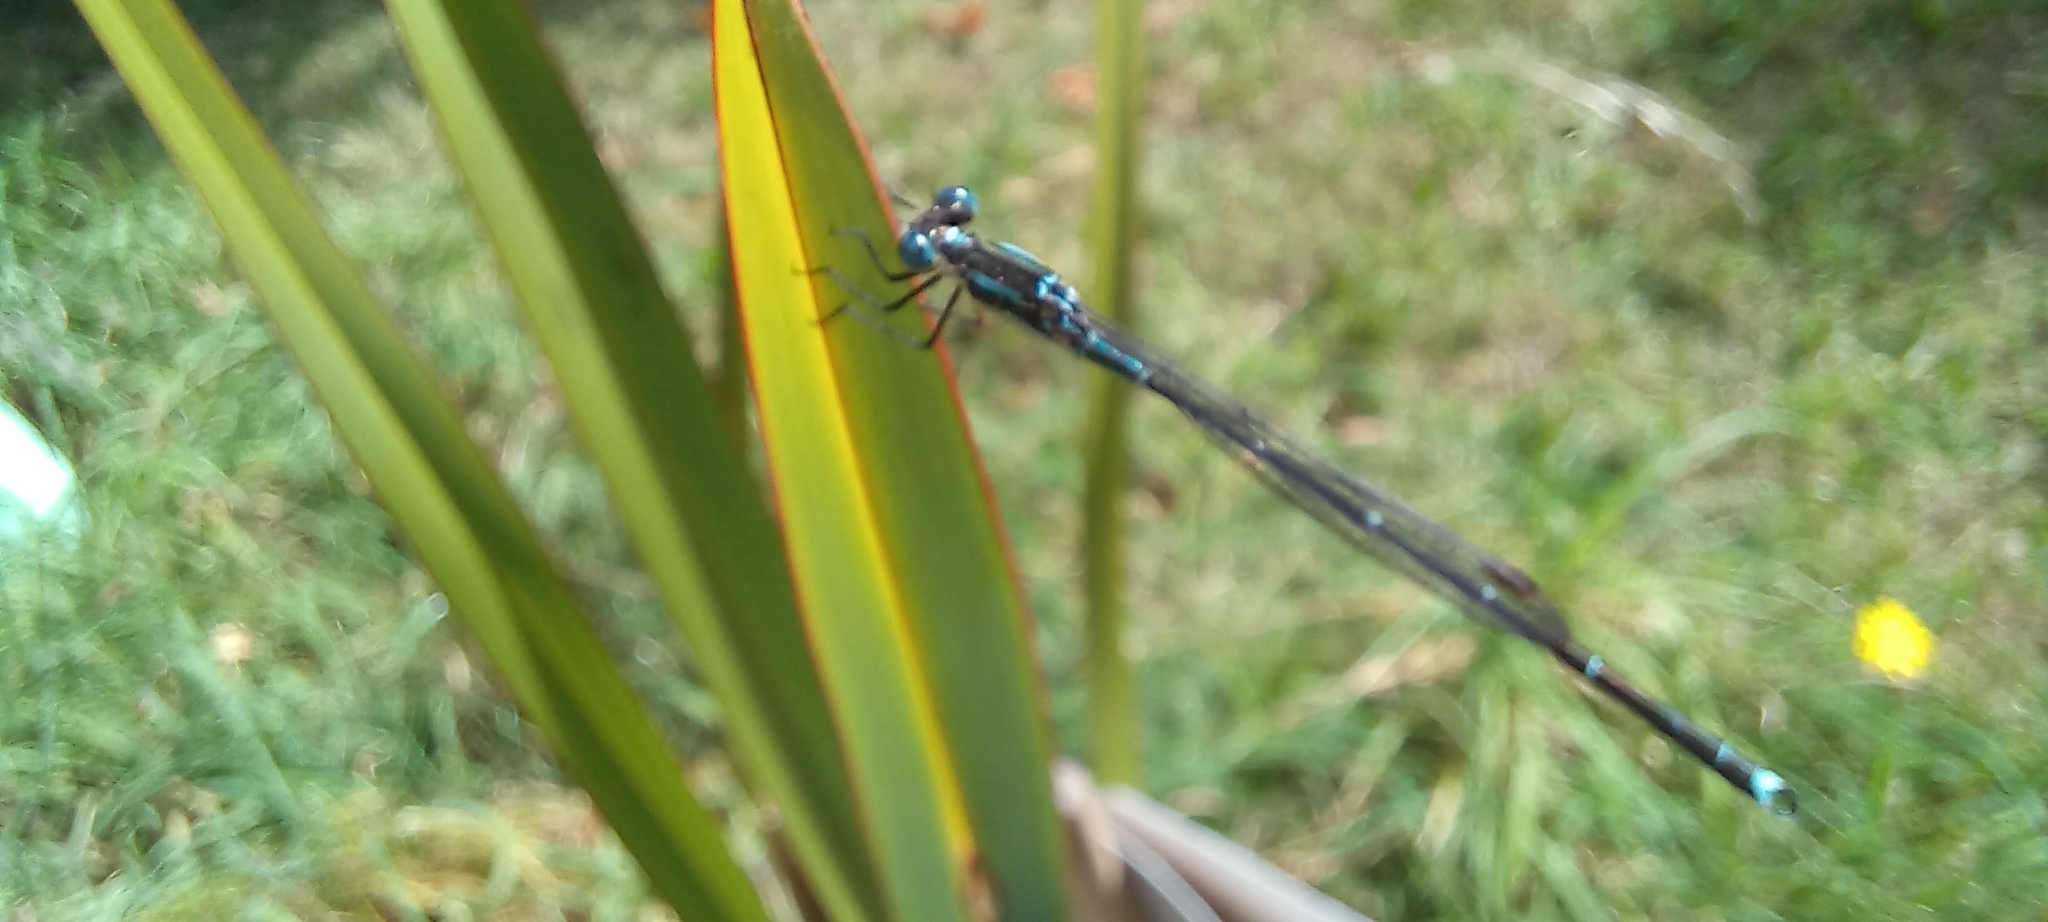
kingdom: Animalia
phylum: Arthropoda
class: Insecta
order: Odonata
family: Lestidae
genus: Austrolestes
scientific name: Austrolestes colensonis
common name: Blue damselfly
